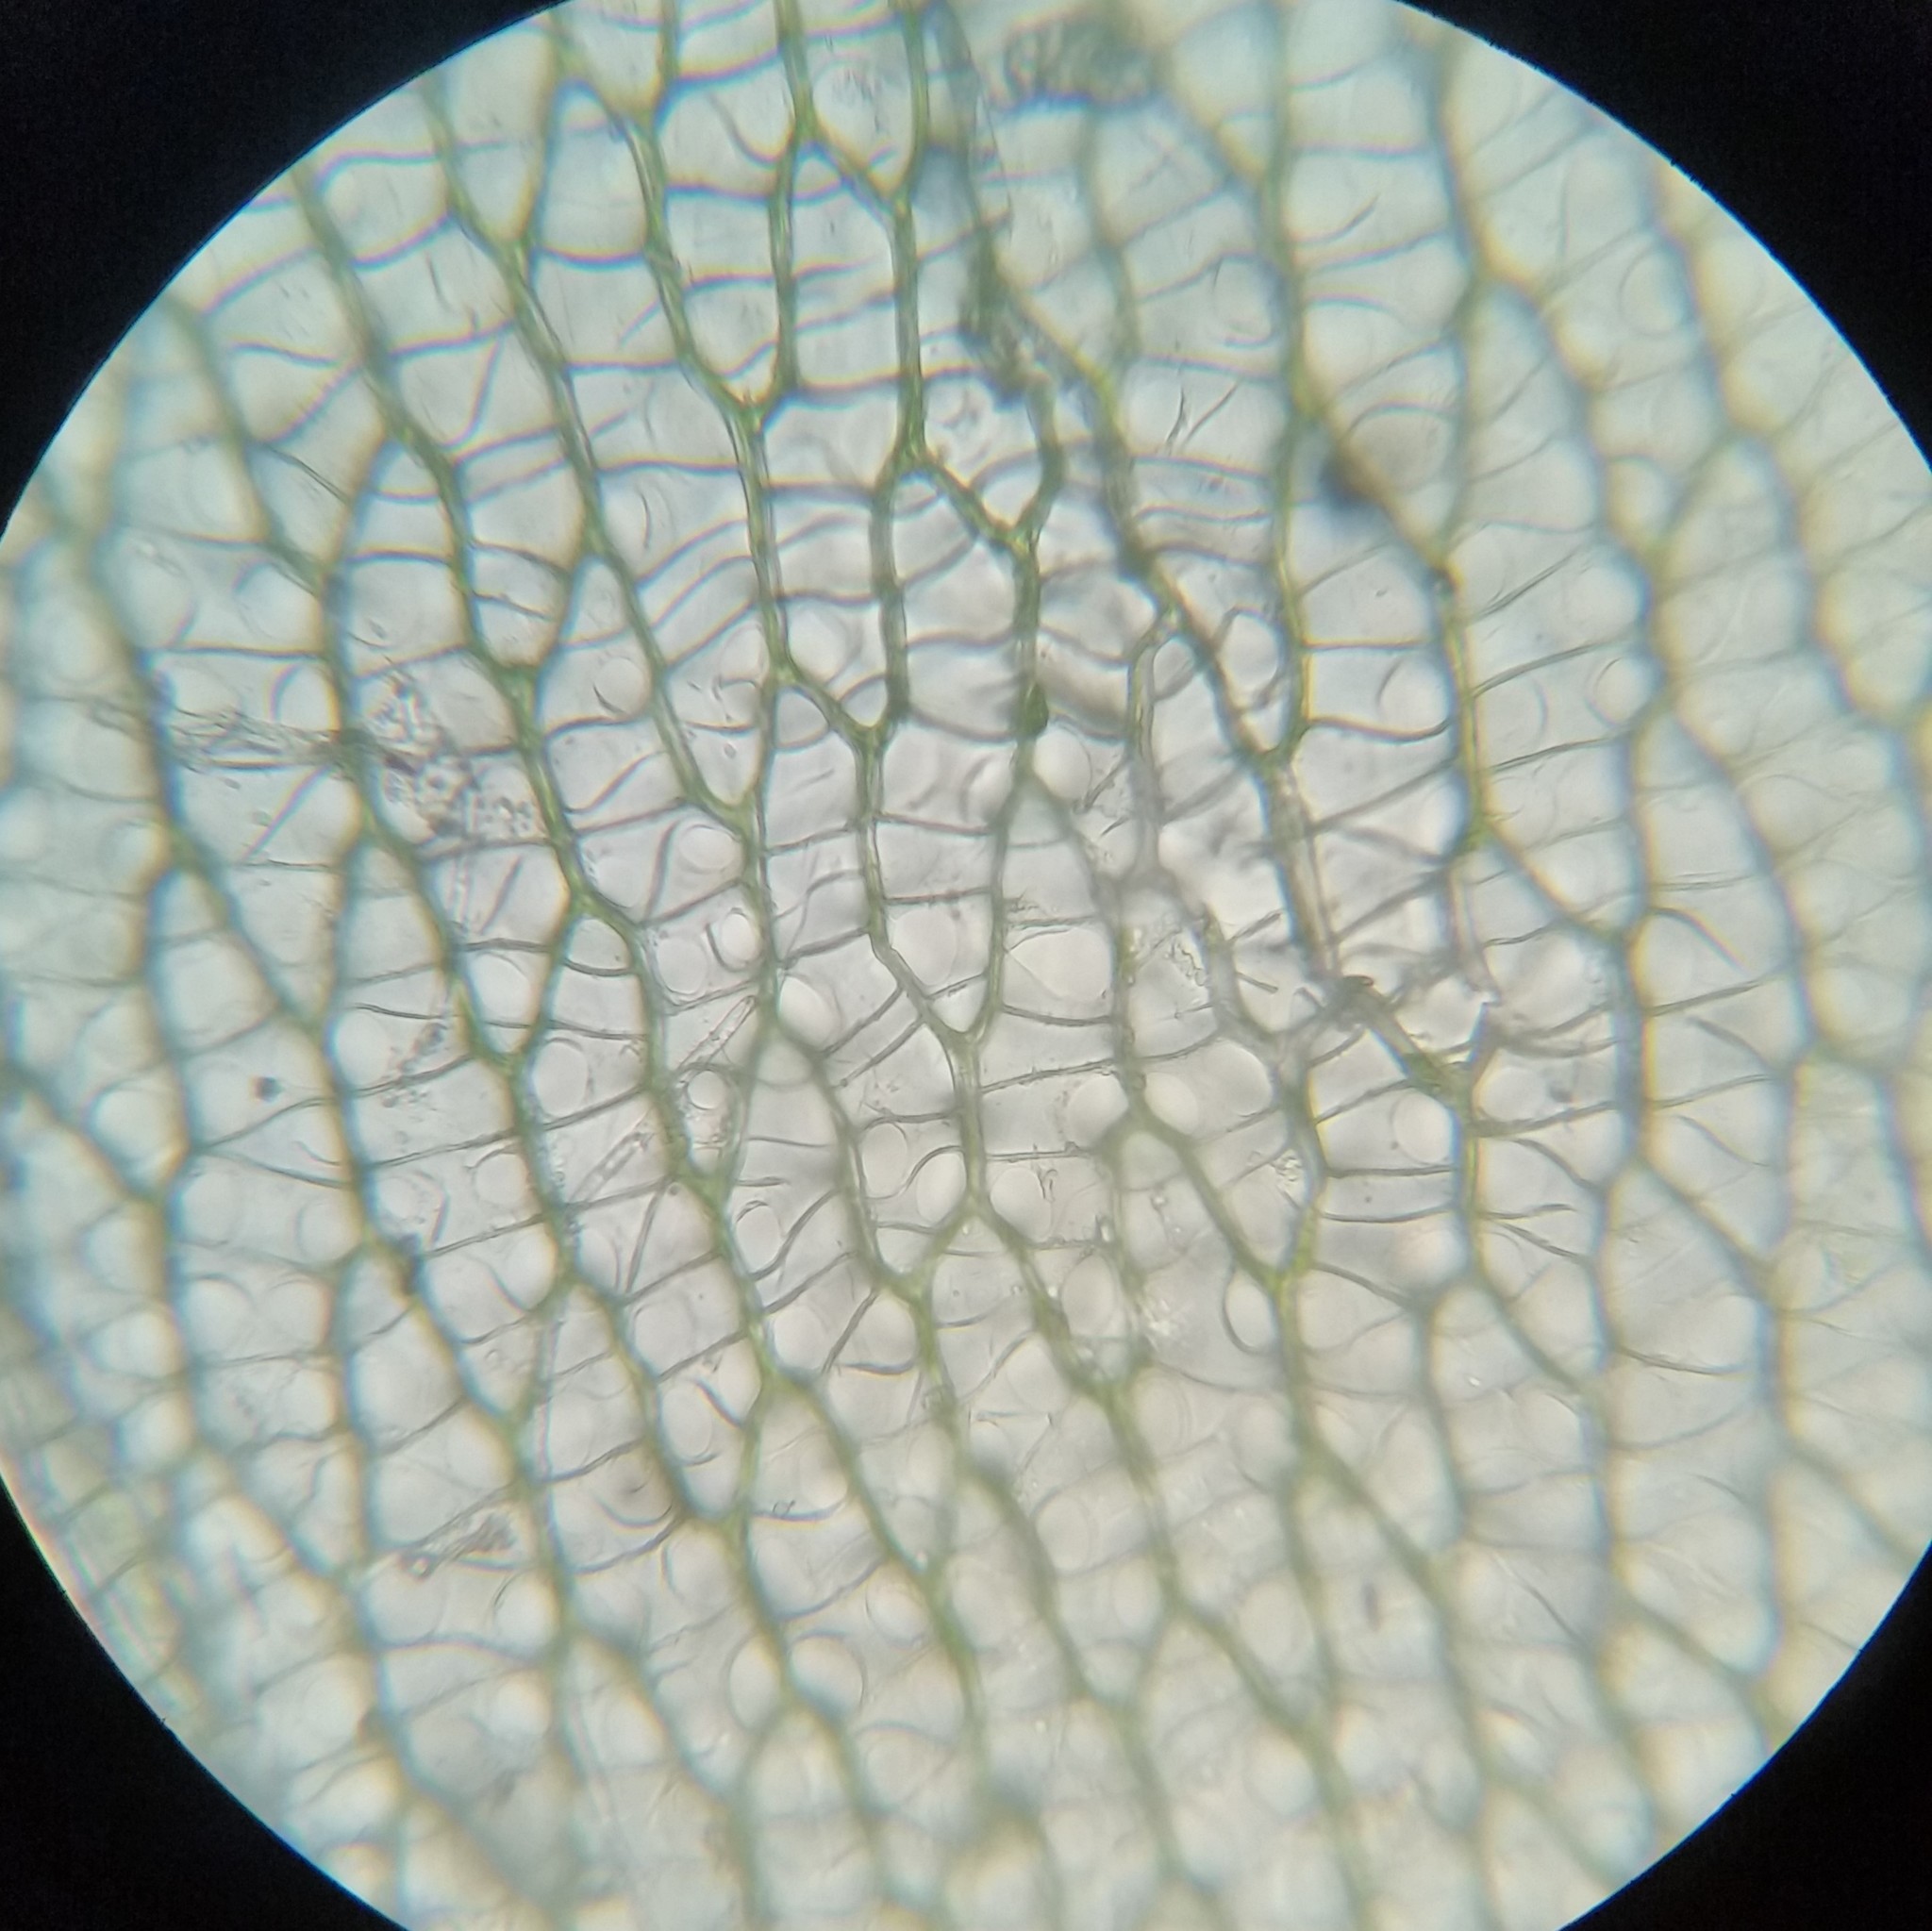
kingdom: Plantae
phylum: Bryophyta
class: Sphagnopsida
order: Sphagnales
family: Sphagnaceae
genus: Sphagnum
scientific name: Sphagnum fimbriatum
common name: Fringed peat moss
